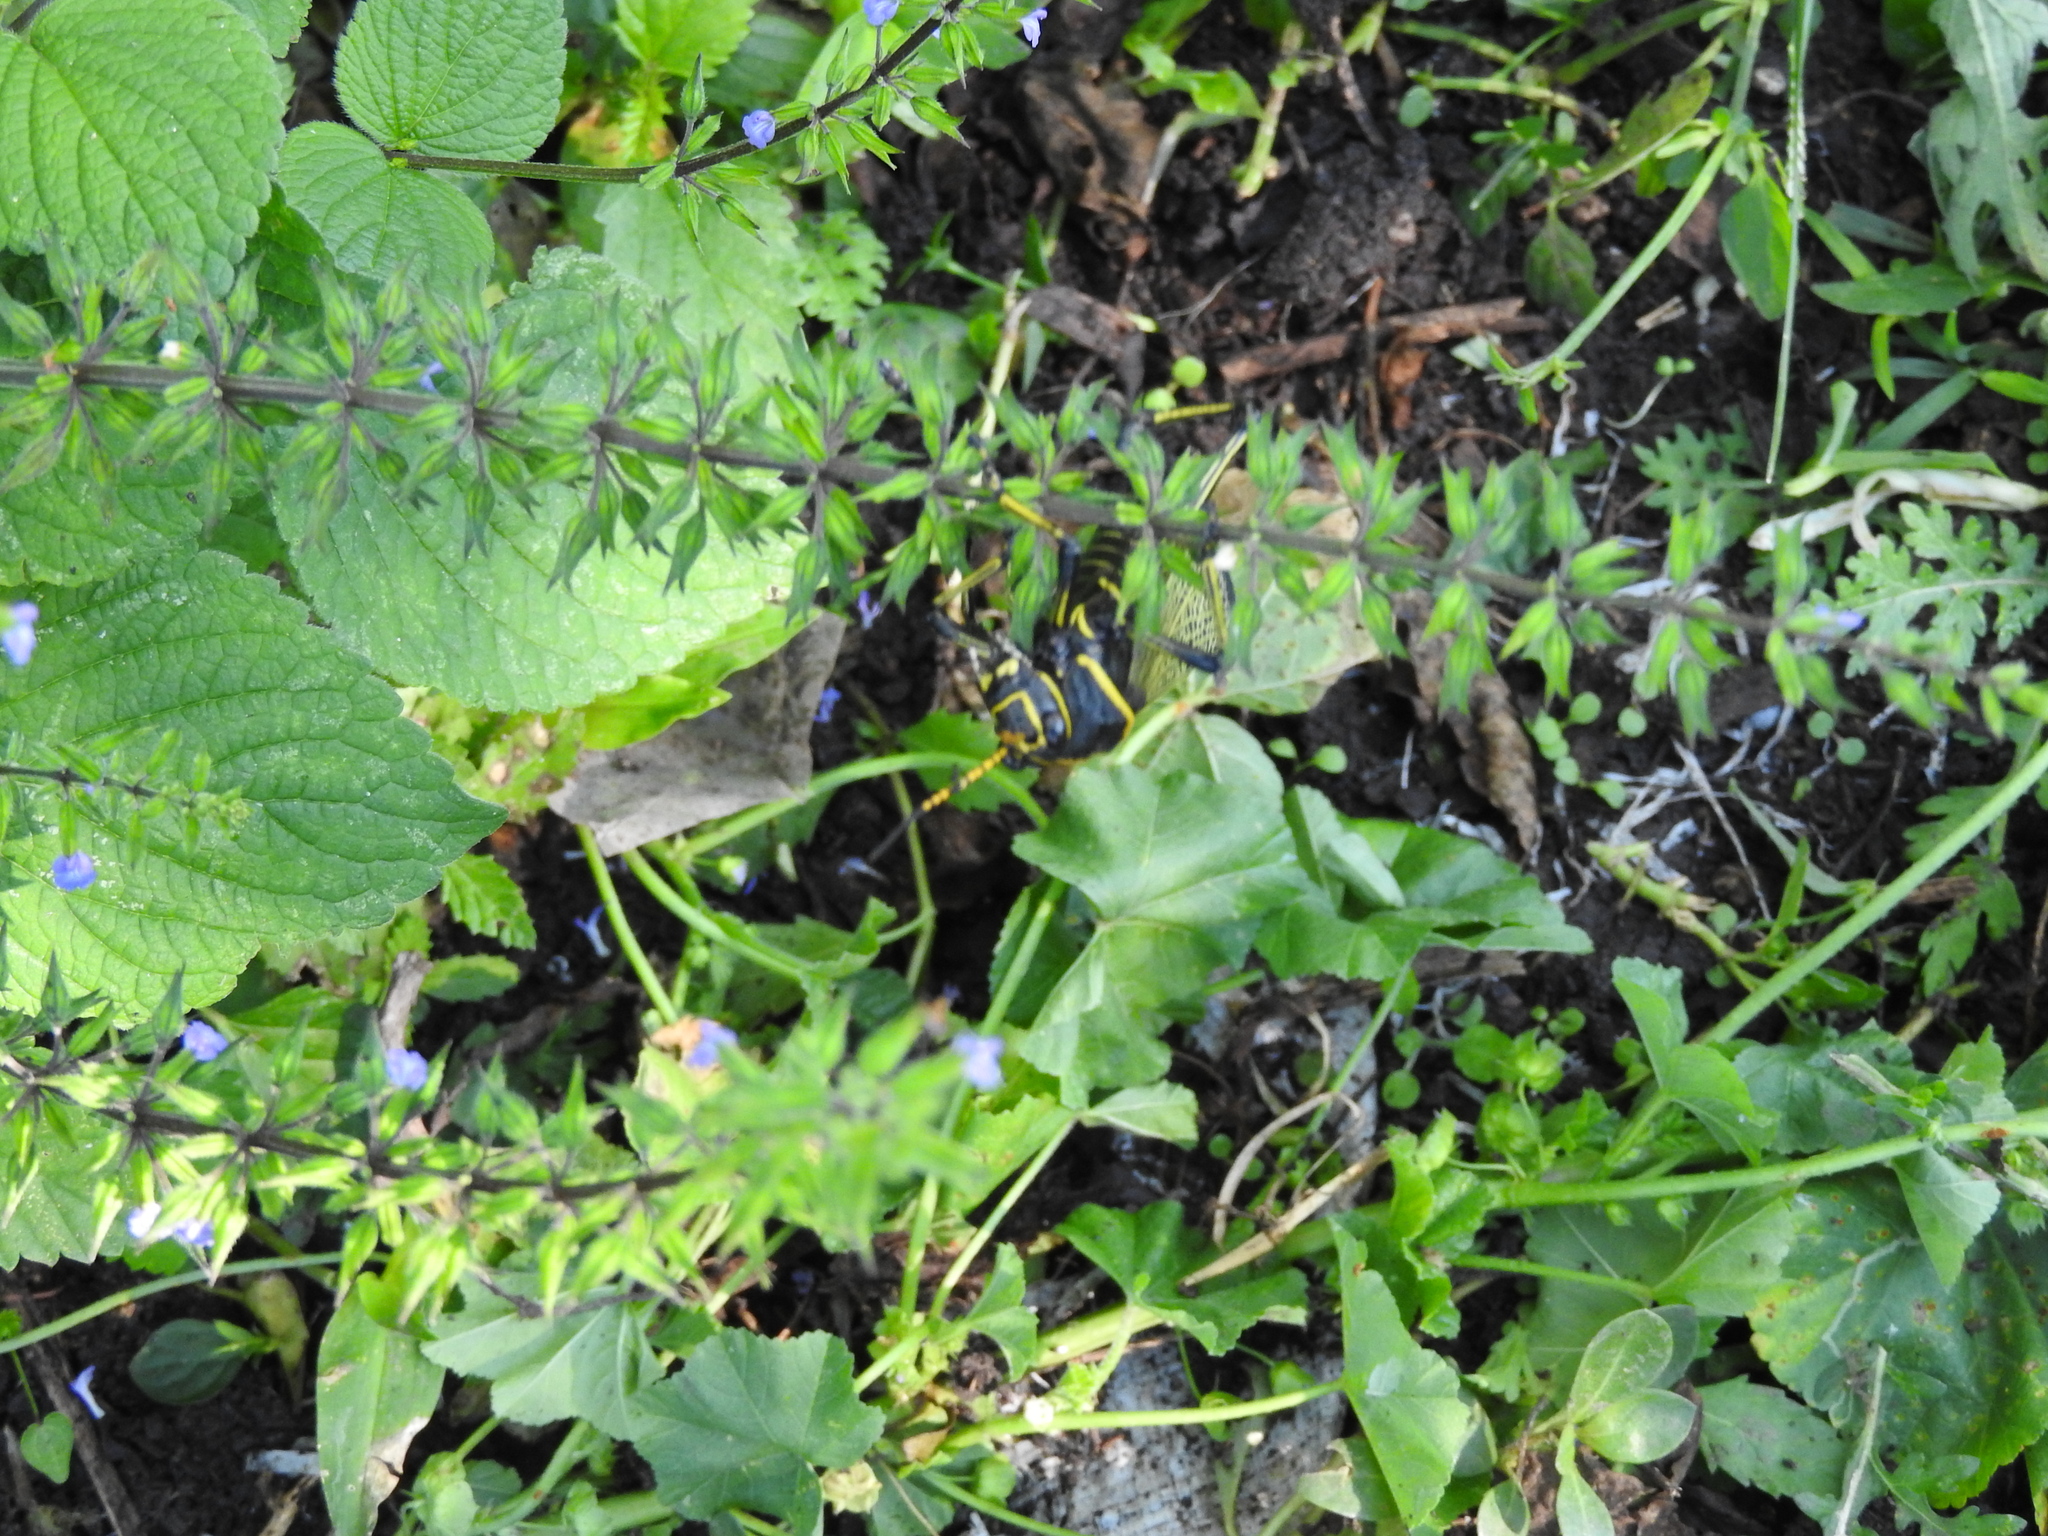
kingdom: Animalia
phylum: Arthropoda
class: Insecta
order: Orthoptera
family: Romaleidae
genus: Romalea
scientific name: Romalea
